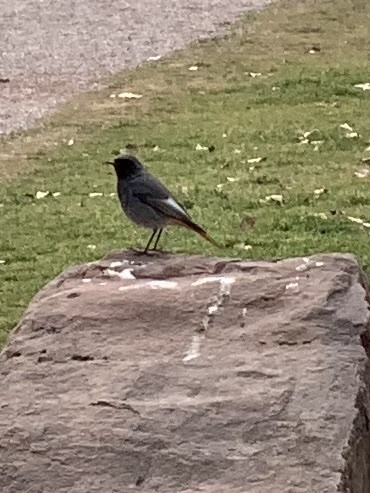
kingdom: Animalia
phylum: Chordata
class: Aves
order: Passeriformes
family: Muscicapidae
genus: Phoenicurus
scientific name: Phoenicurus ochruros
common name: Black redstart
